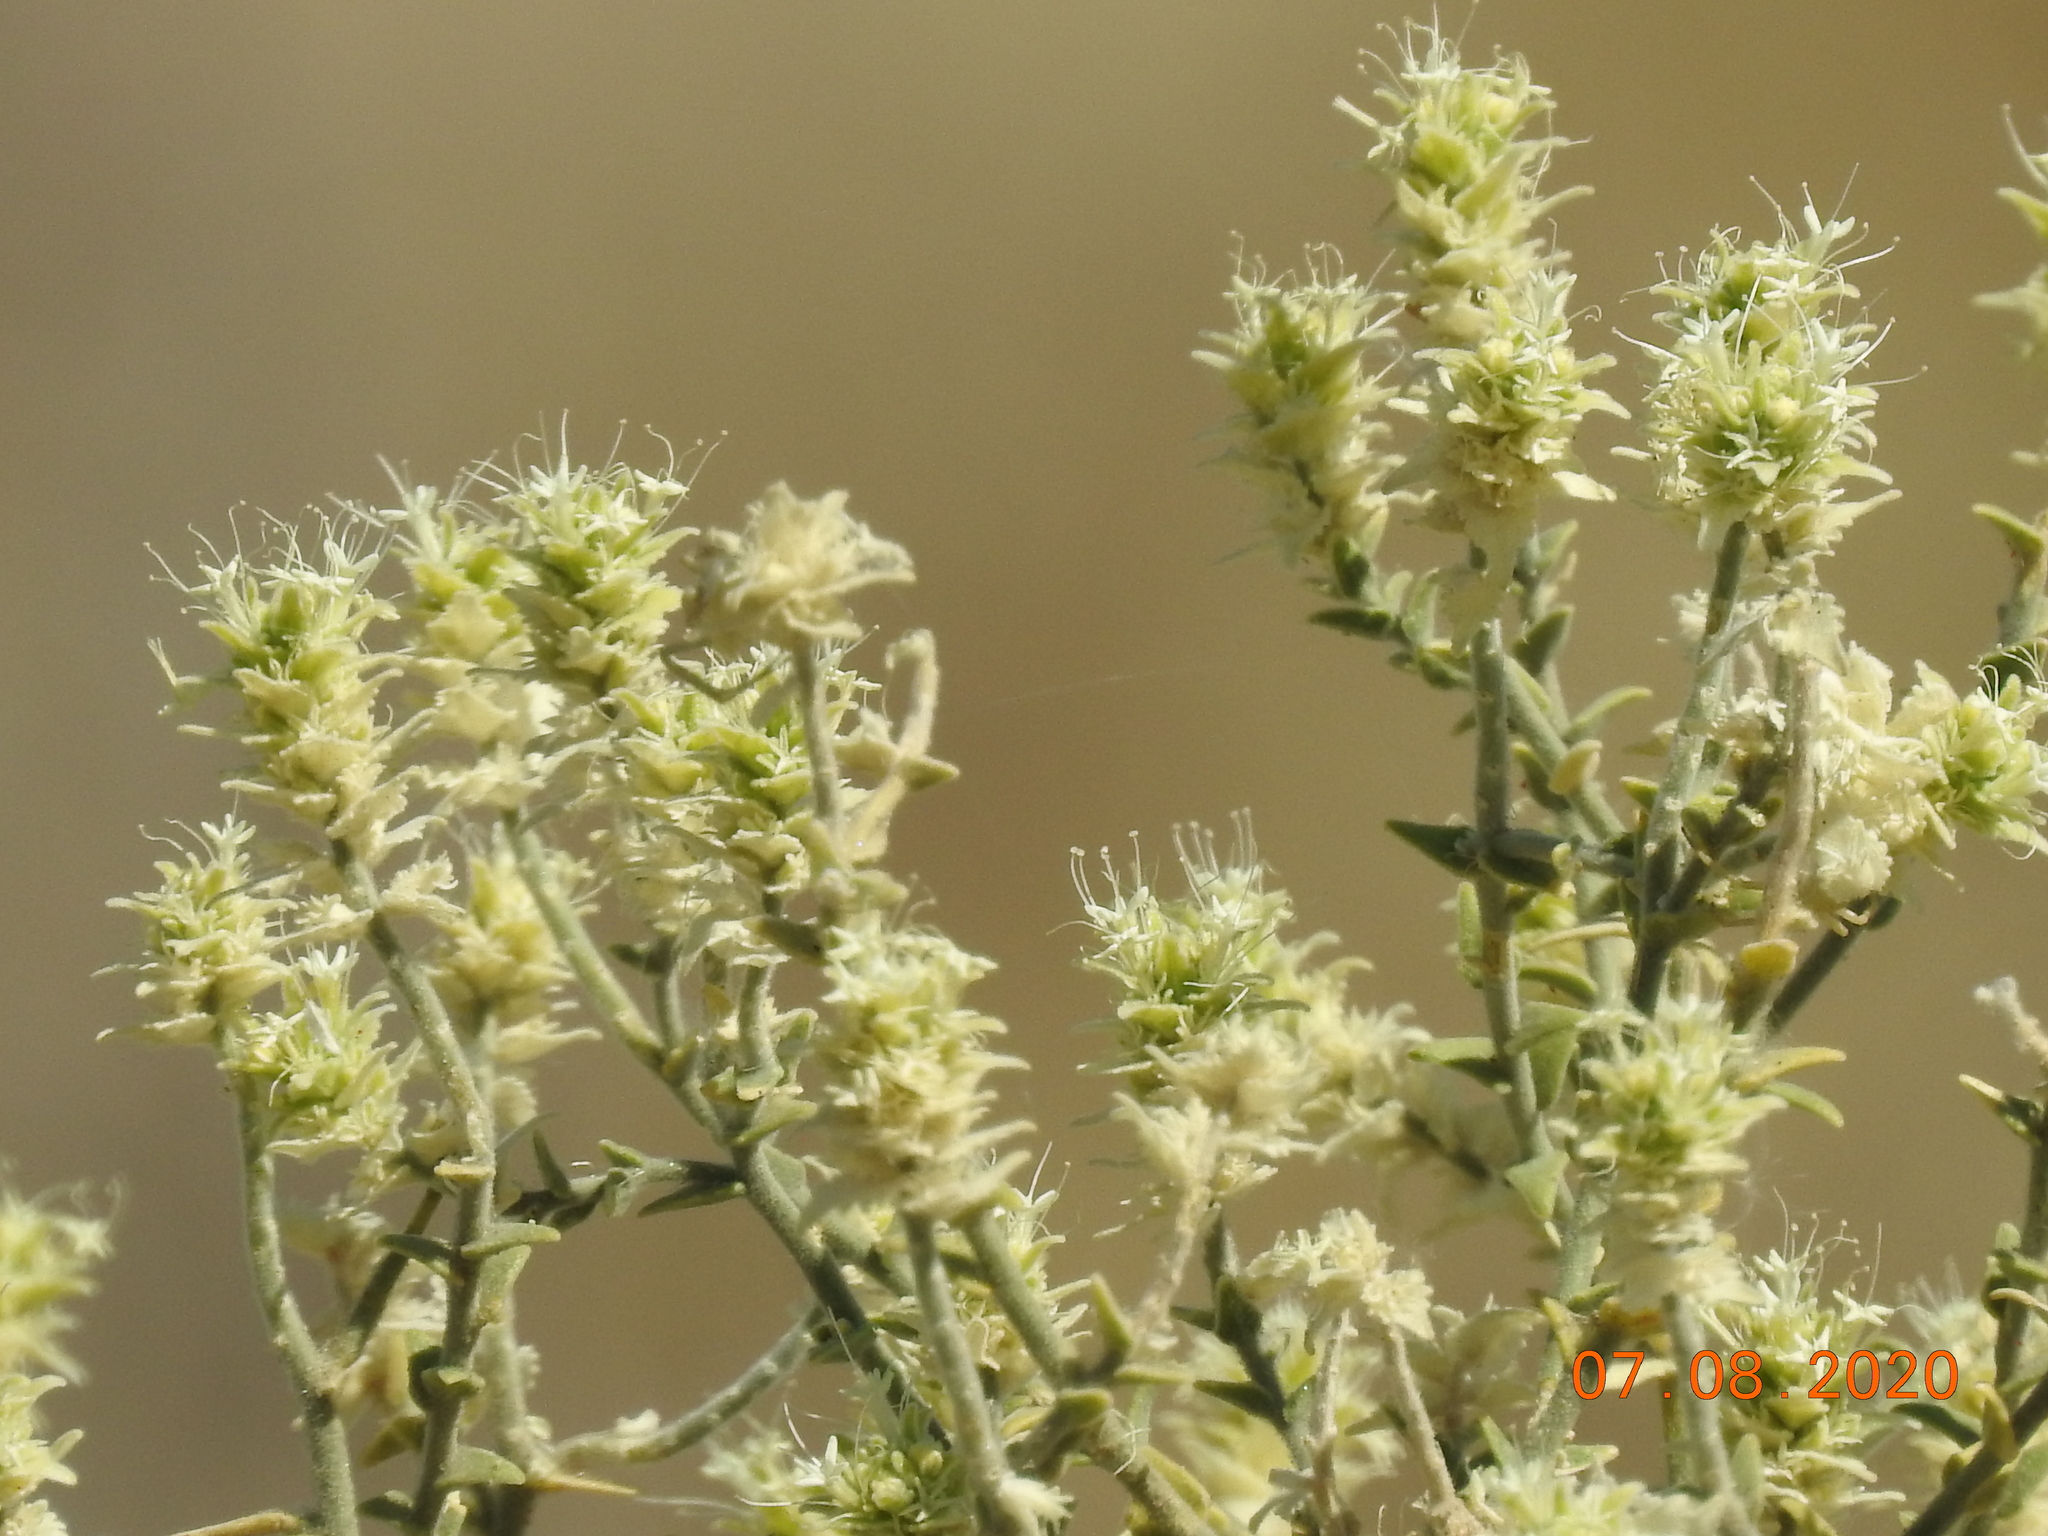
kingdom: Plantae
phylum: Tracheophyta
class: Magnoliopsida
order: Cornales
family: Loasaceae
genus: Petalonyx
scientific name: Petalonyx thurberi
